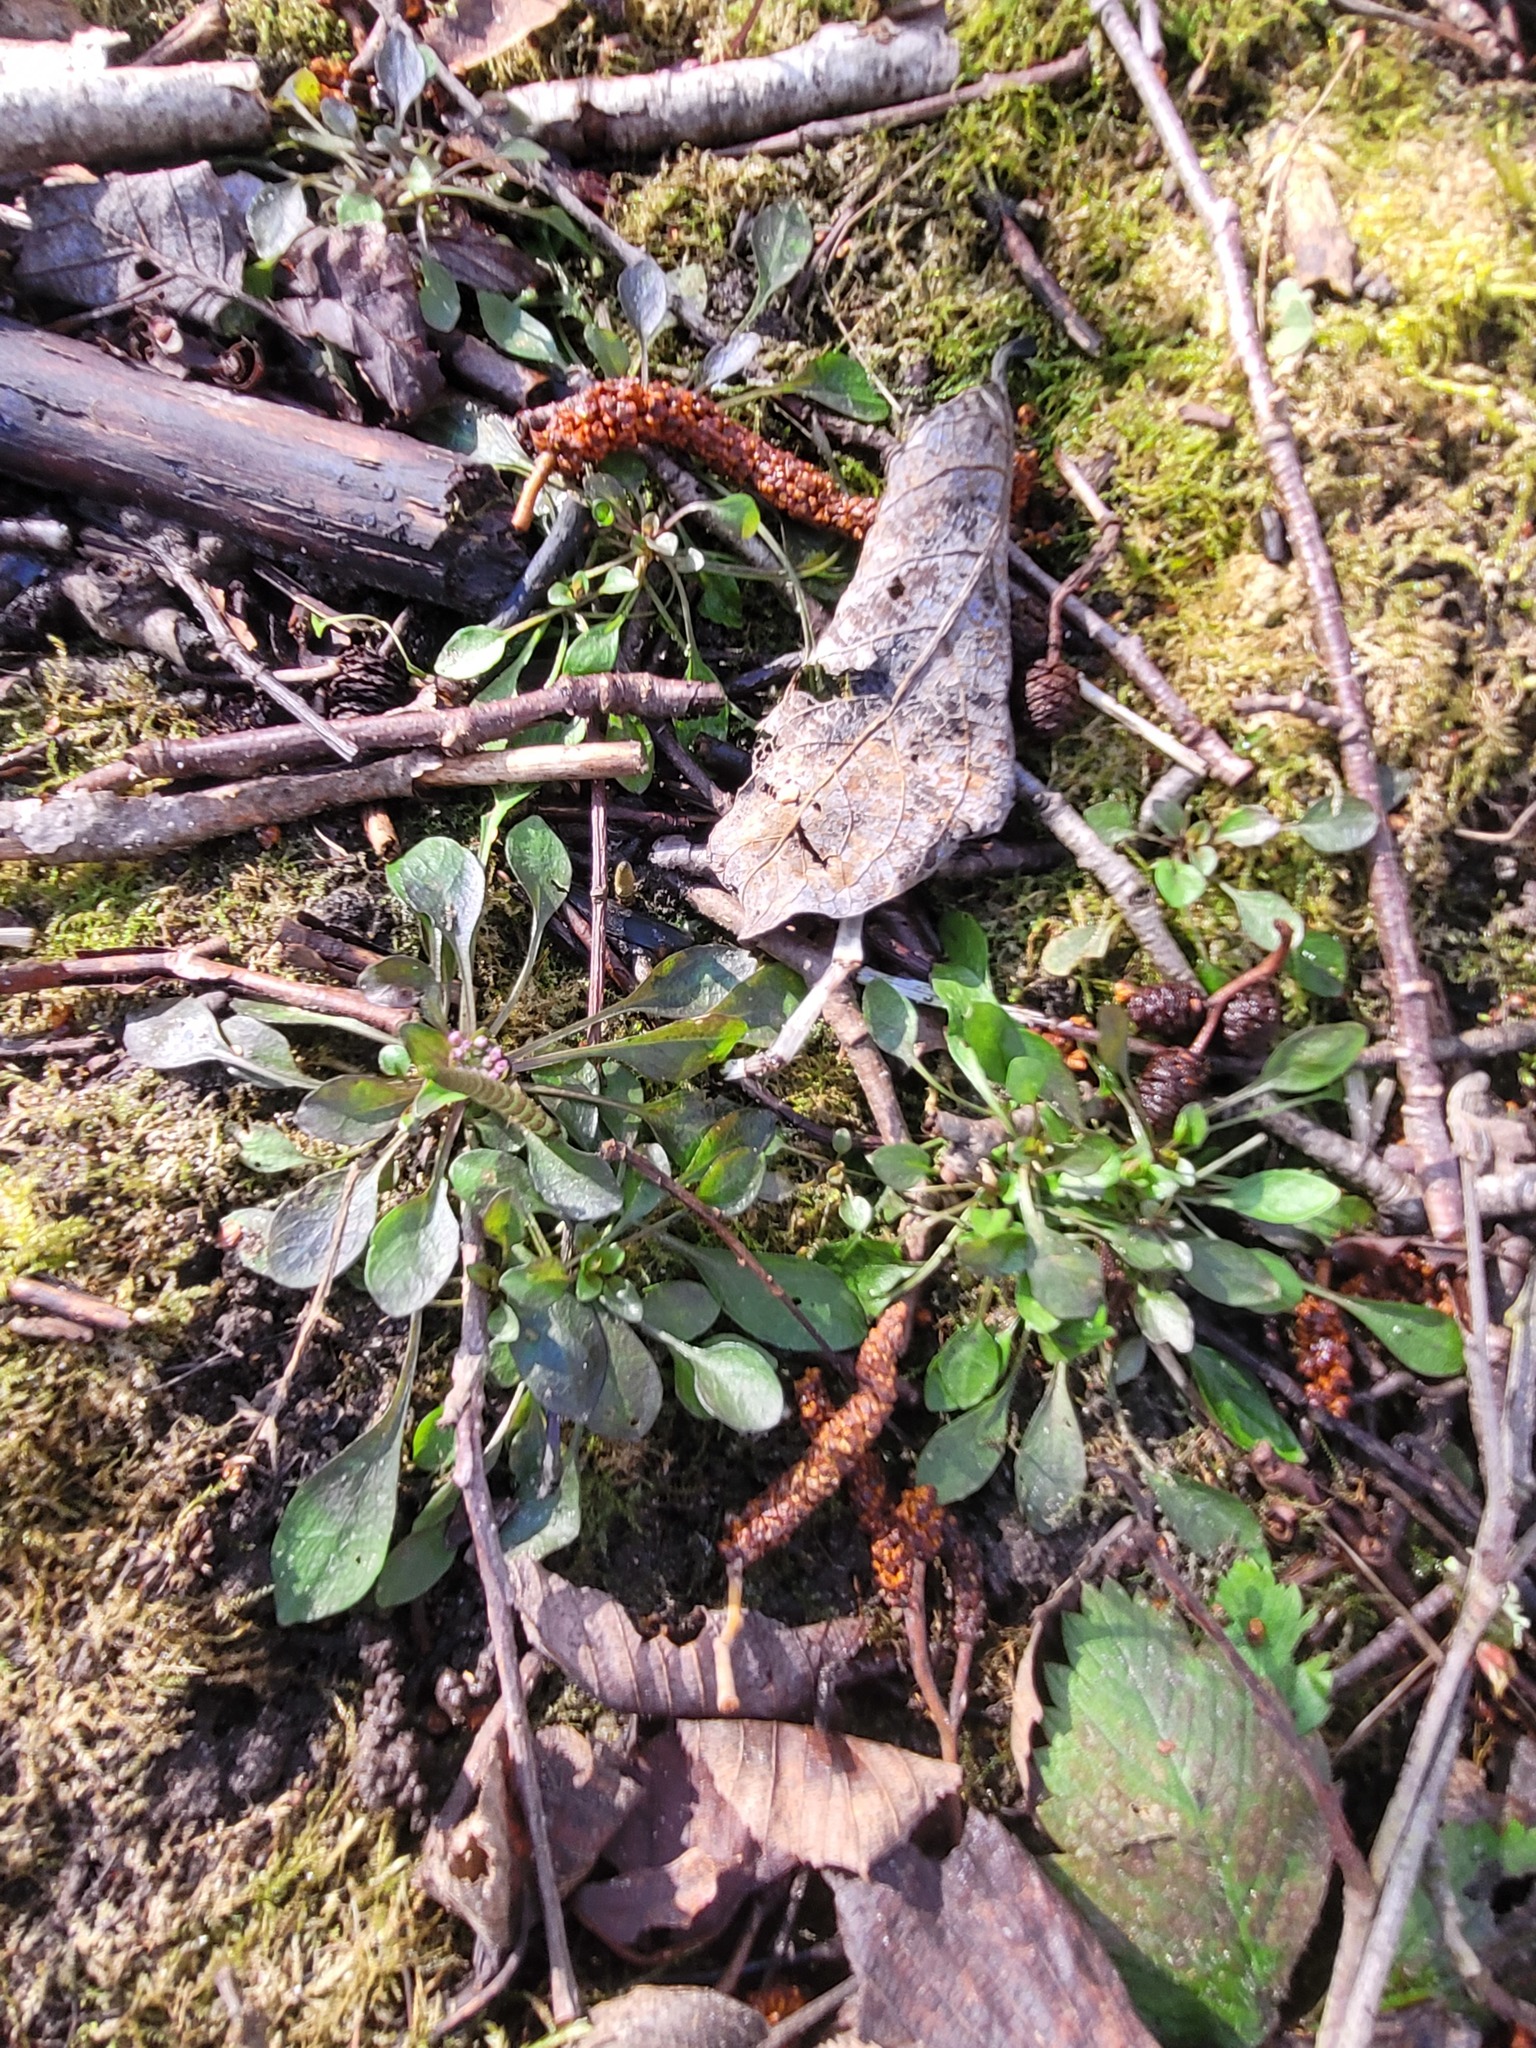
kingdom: Plantae
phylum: Tracheophyta
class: Magnoliopsida
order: Brassicales
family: Brassicaceae
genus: Noccaea
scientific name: Noccaea caerulescens
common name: Alpine pennycress
